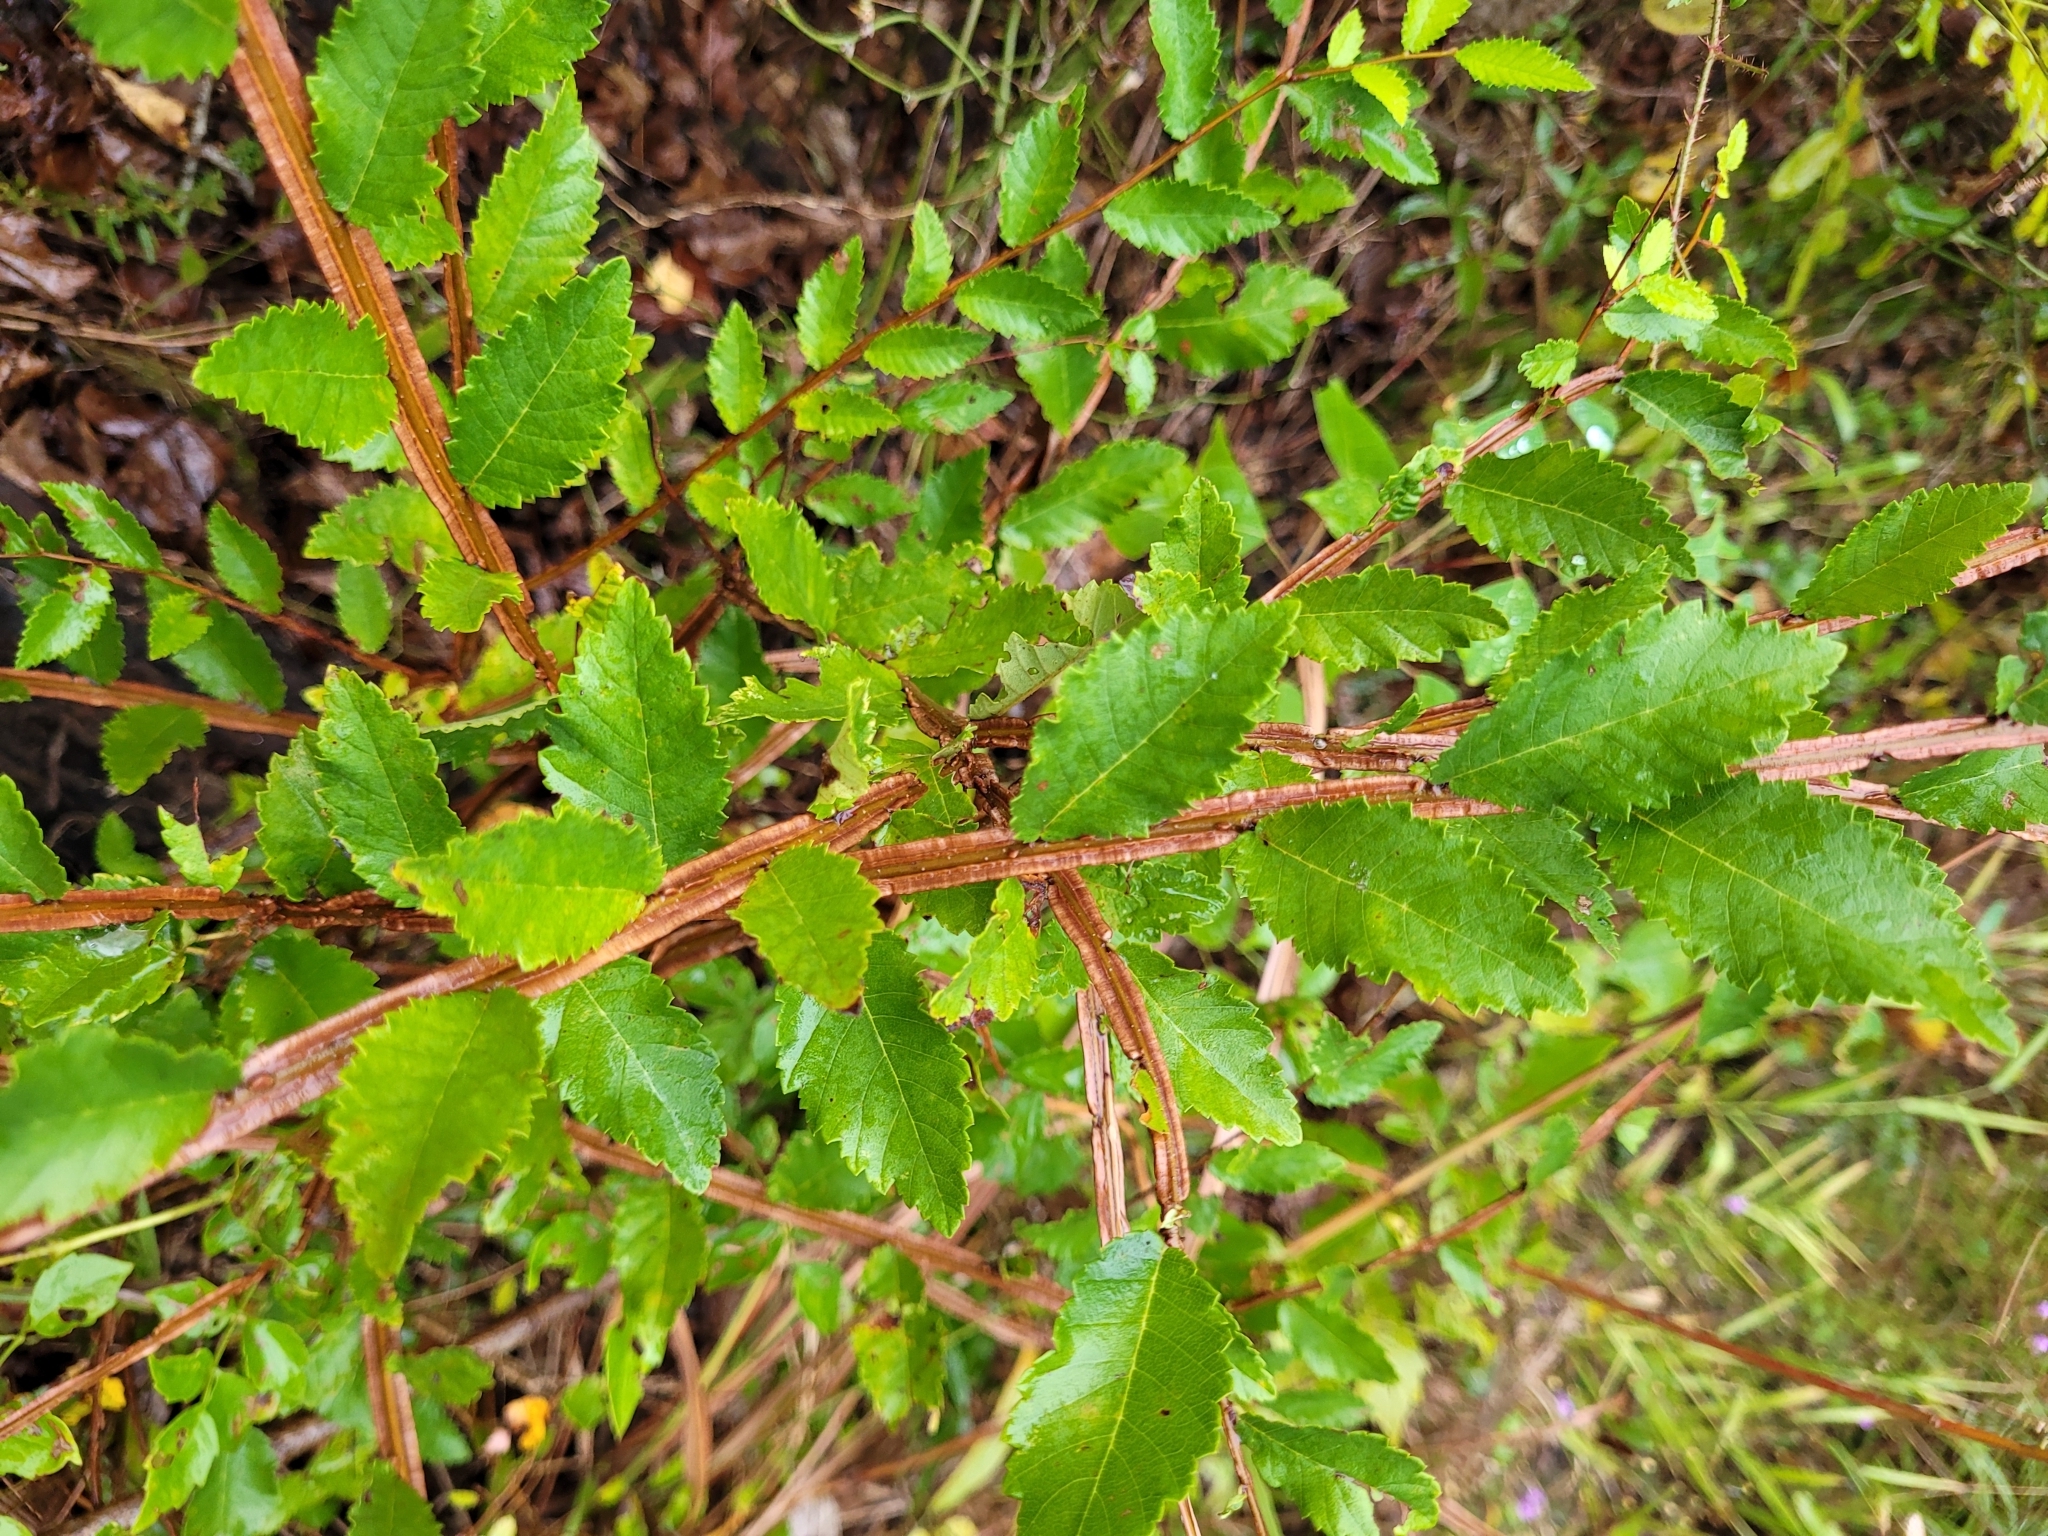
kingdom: Plantae
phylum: Tracheophyta
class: Magnoliopsida
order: Rosales
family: Ulmaceae
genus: Ulmus
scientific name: Ulmus alata
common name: Winged elm
